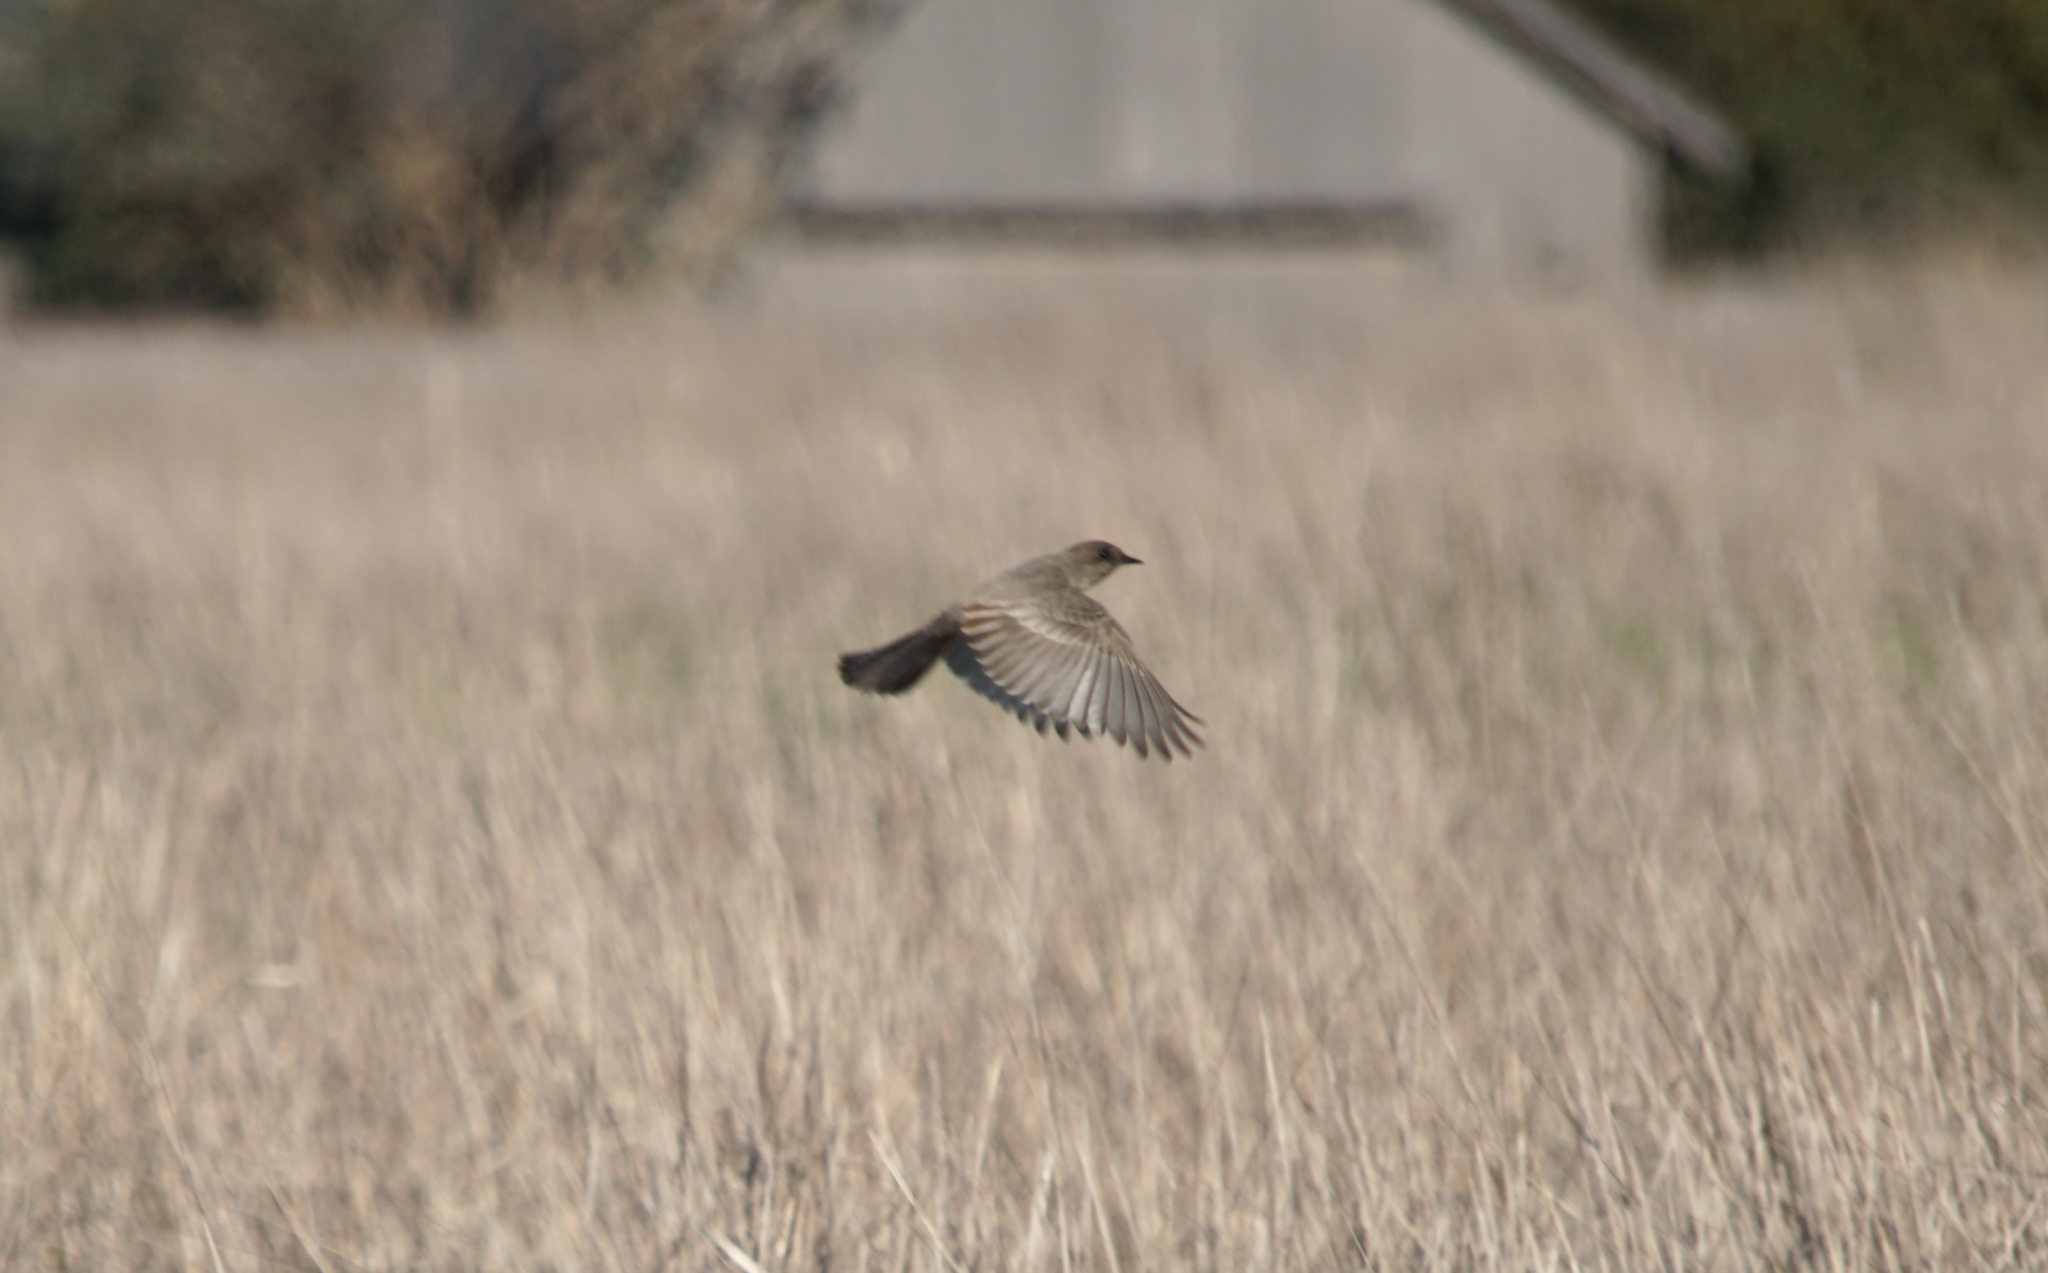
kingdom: Animalia
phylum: Chordata
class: Aves
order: Passeriformes
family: Tyrannidae
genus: Sayornis
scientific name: Sayornis saya
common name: Say's phoebe
